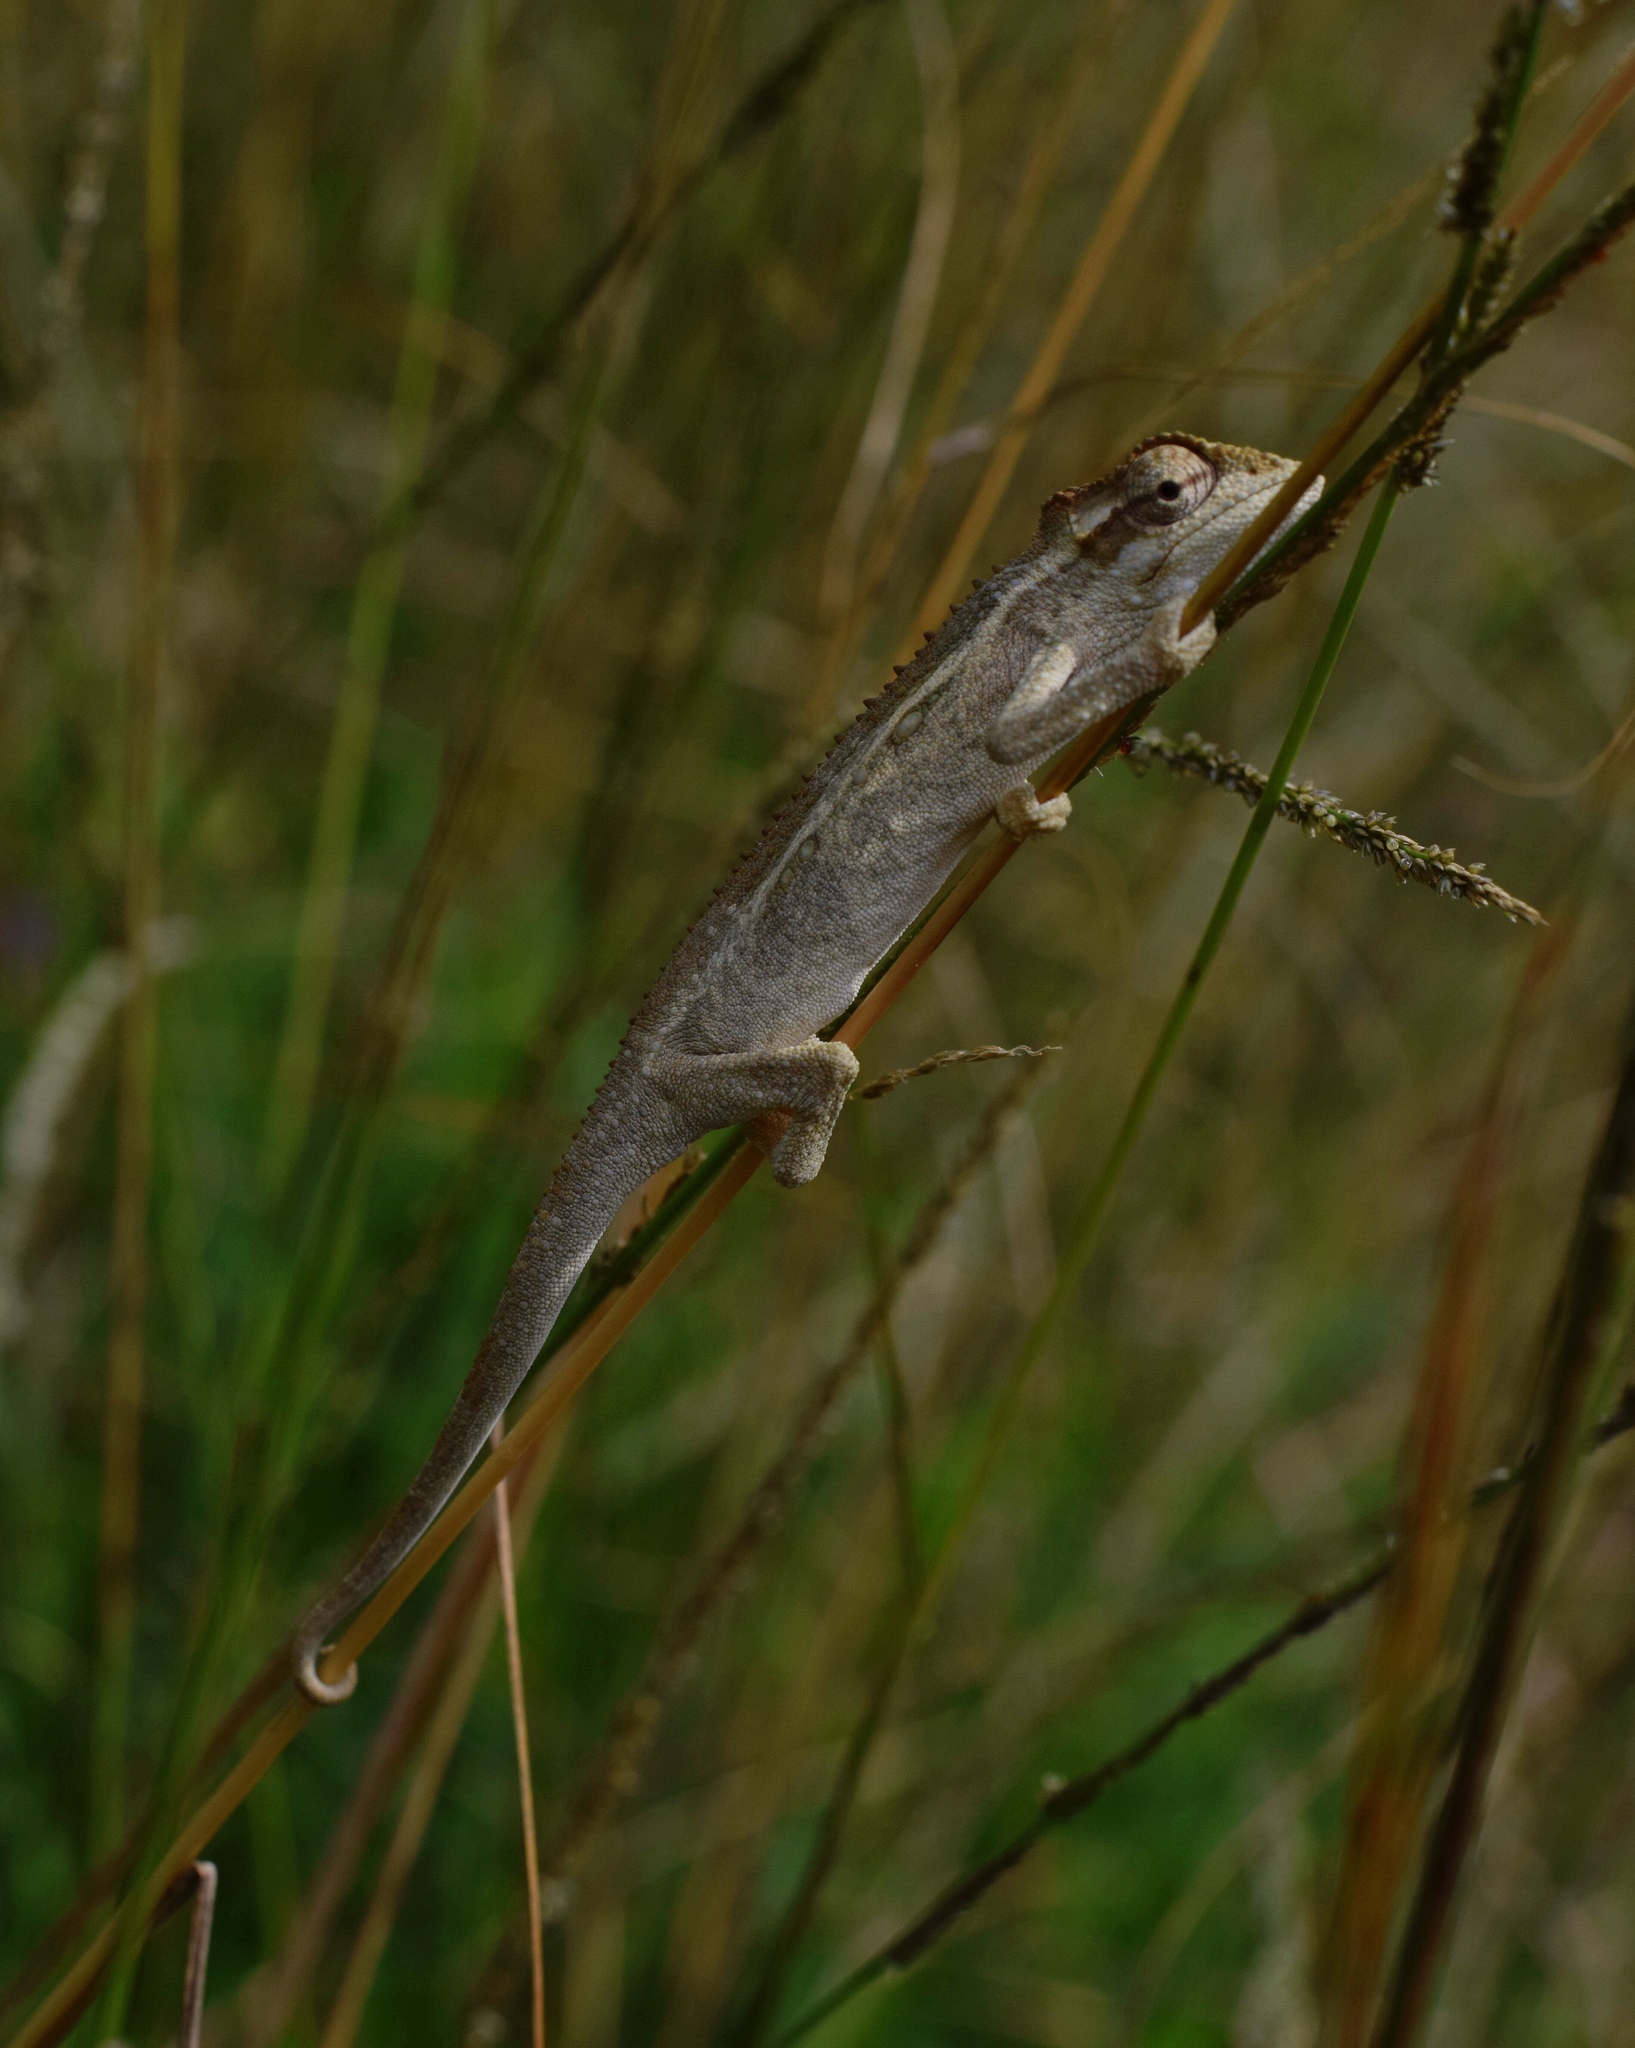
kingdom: Animalia
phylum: Chordata
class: Squamata
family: Chamaeleonidae
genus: Bradypodion
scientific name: Bradypodion melanocephalum
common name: Black-headed dwarf chameleon
